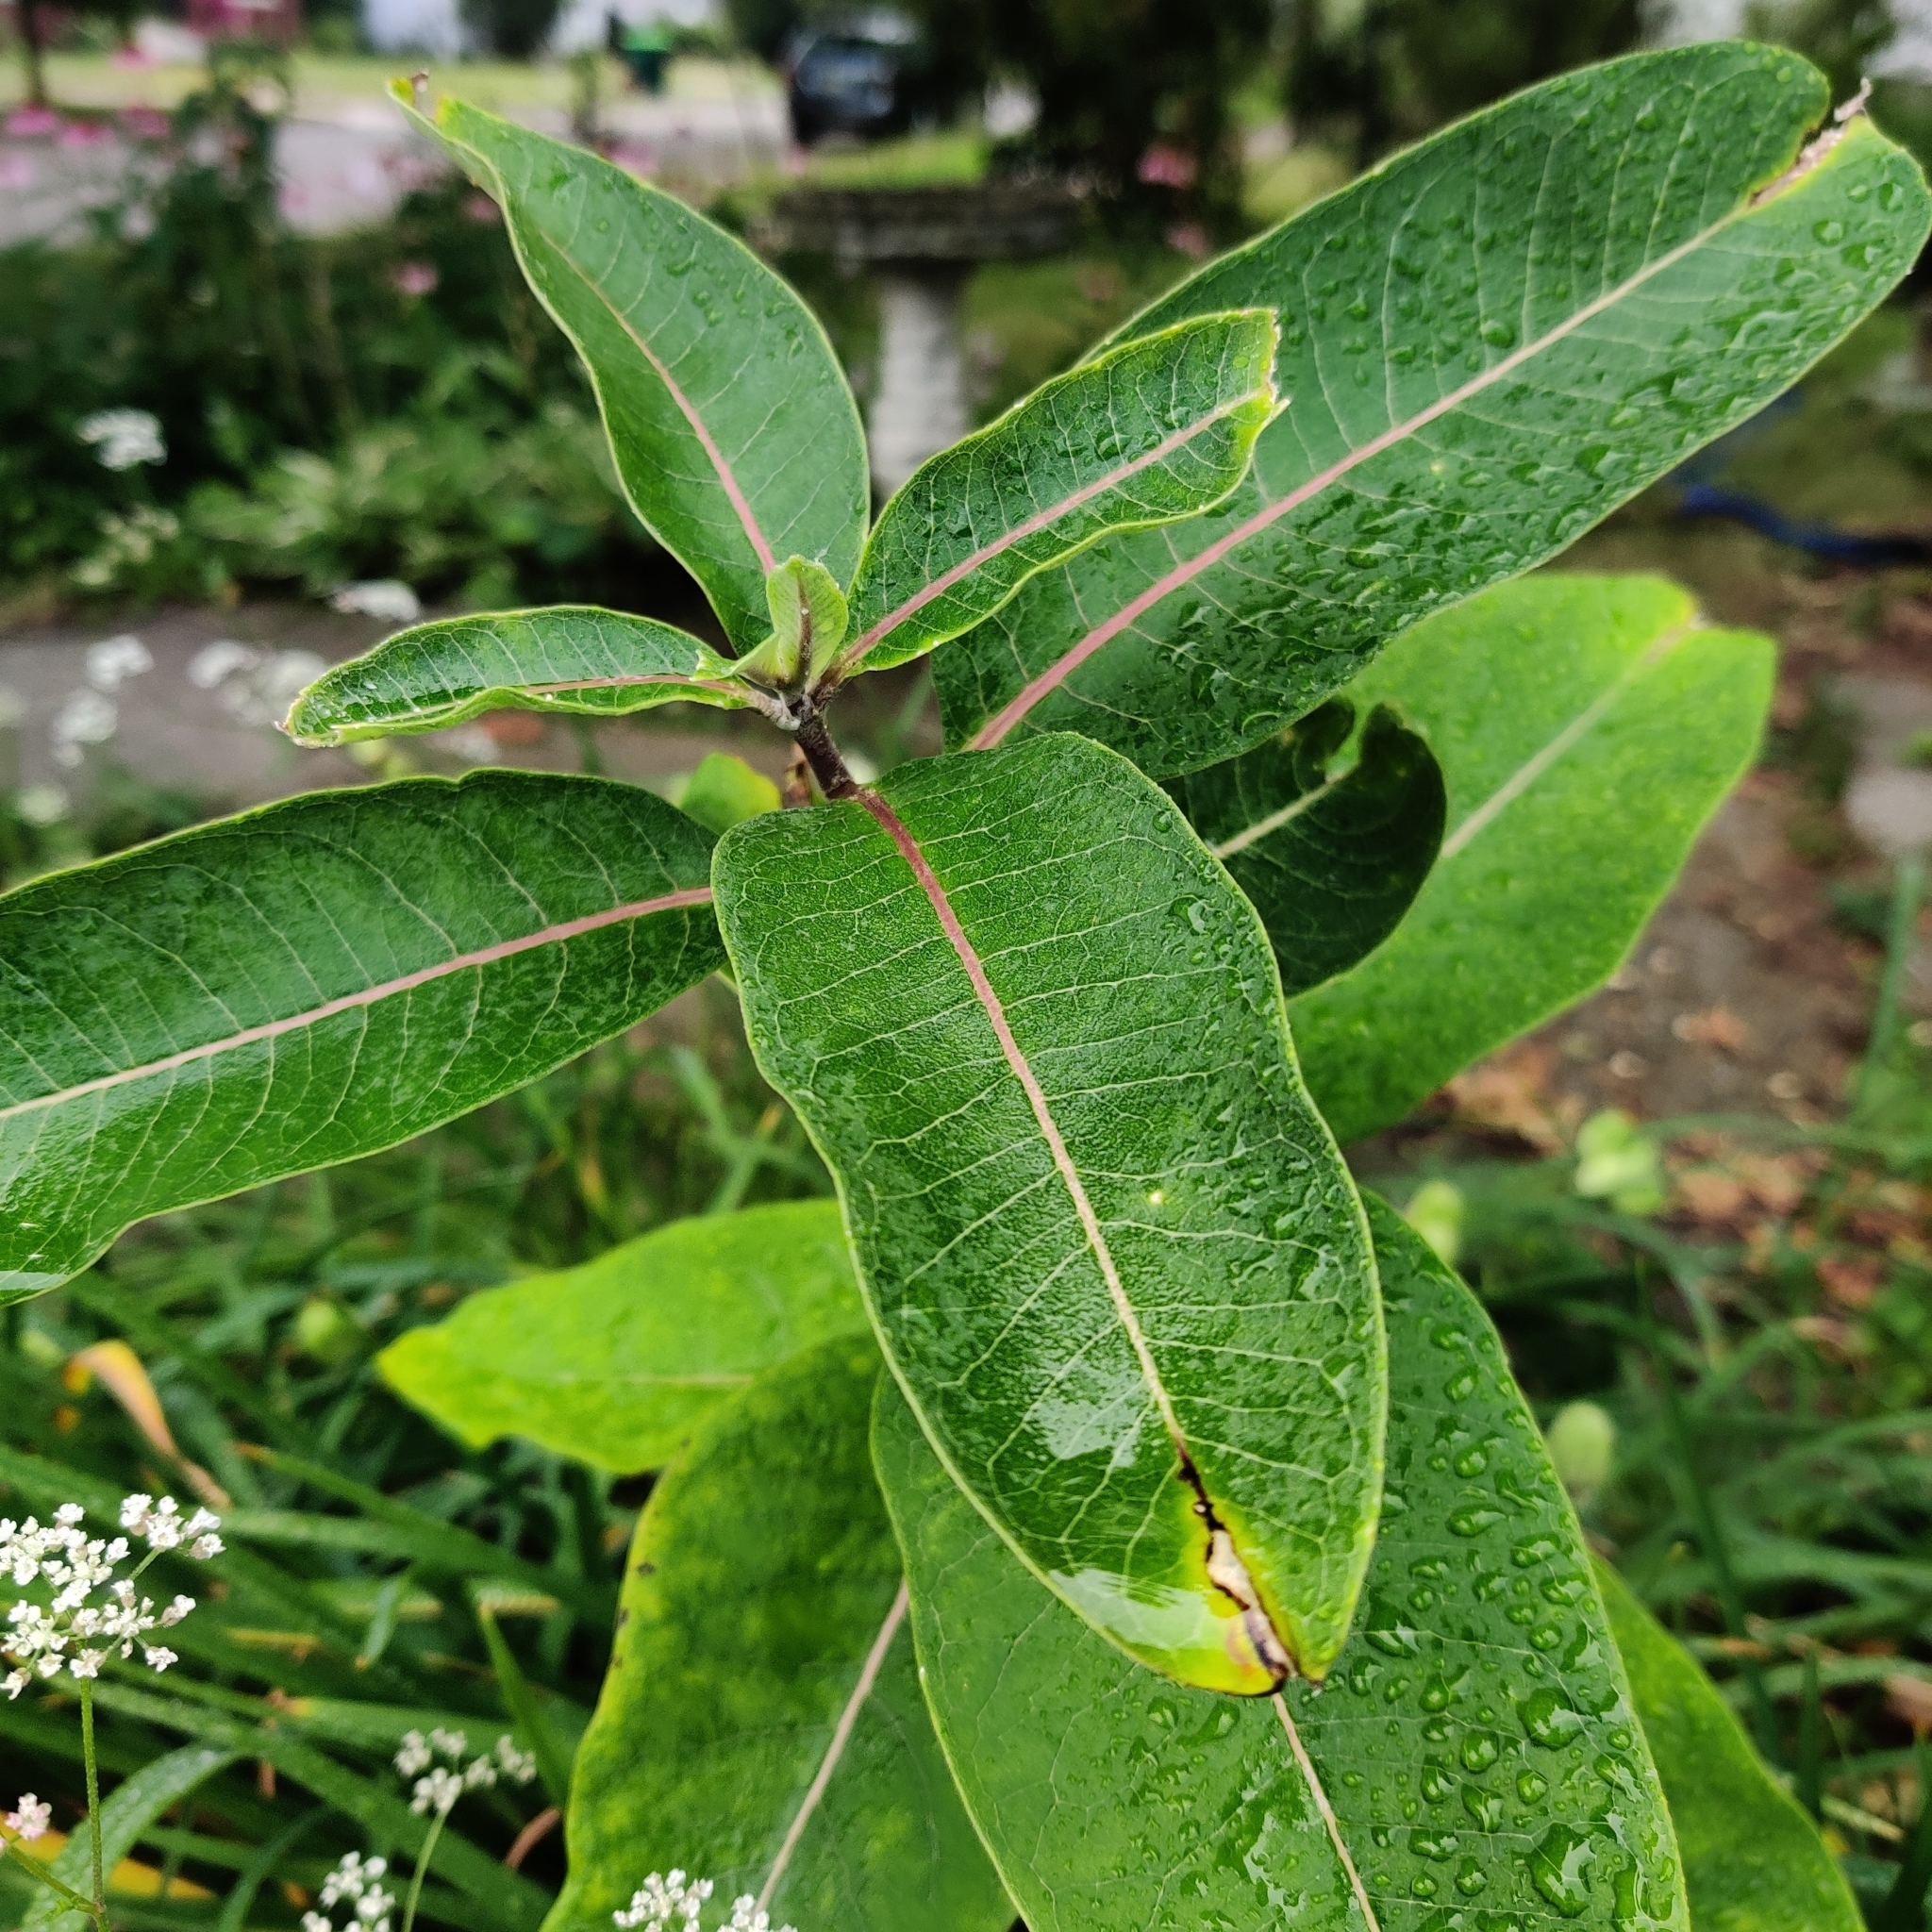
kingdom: Plantae
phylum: Tracheophyta
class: Magnoliopsida
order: Gentianales
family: Apocynaceae
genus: Asclepias
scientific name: Asclepias syriaca
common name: Common milkweed
